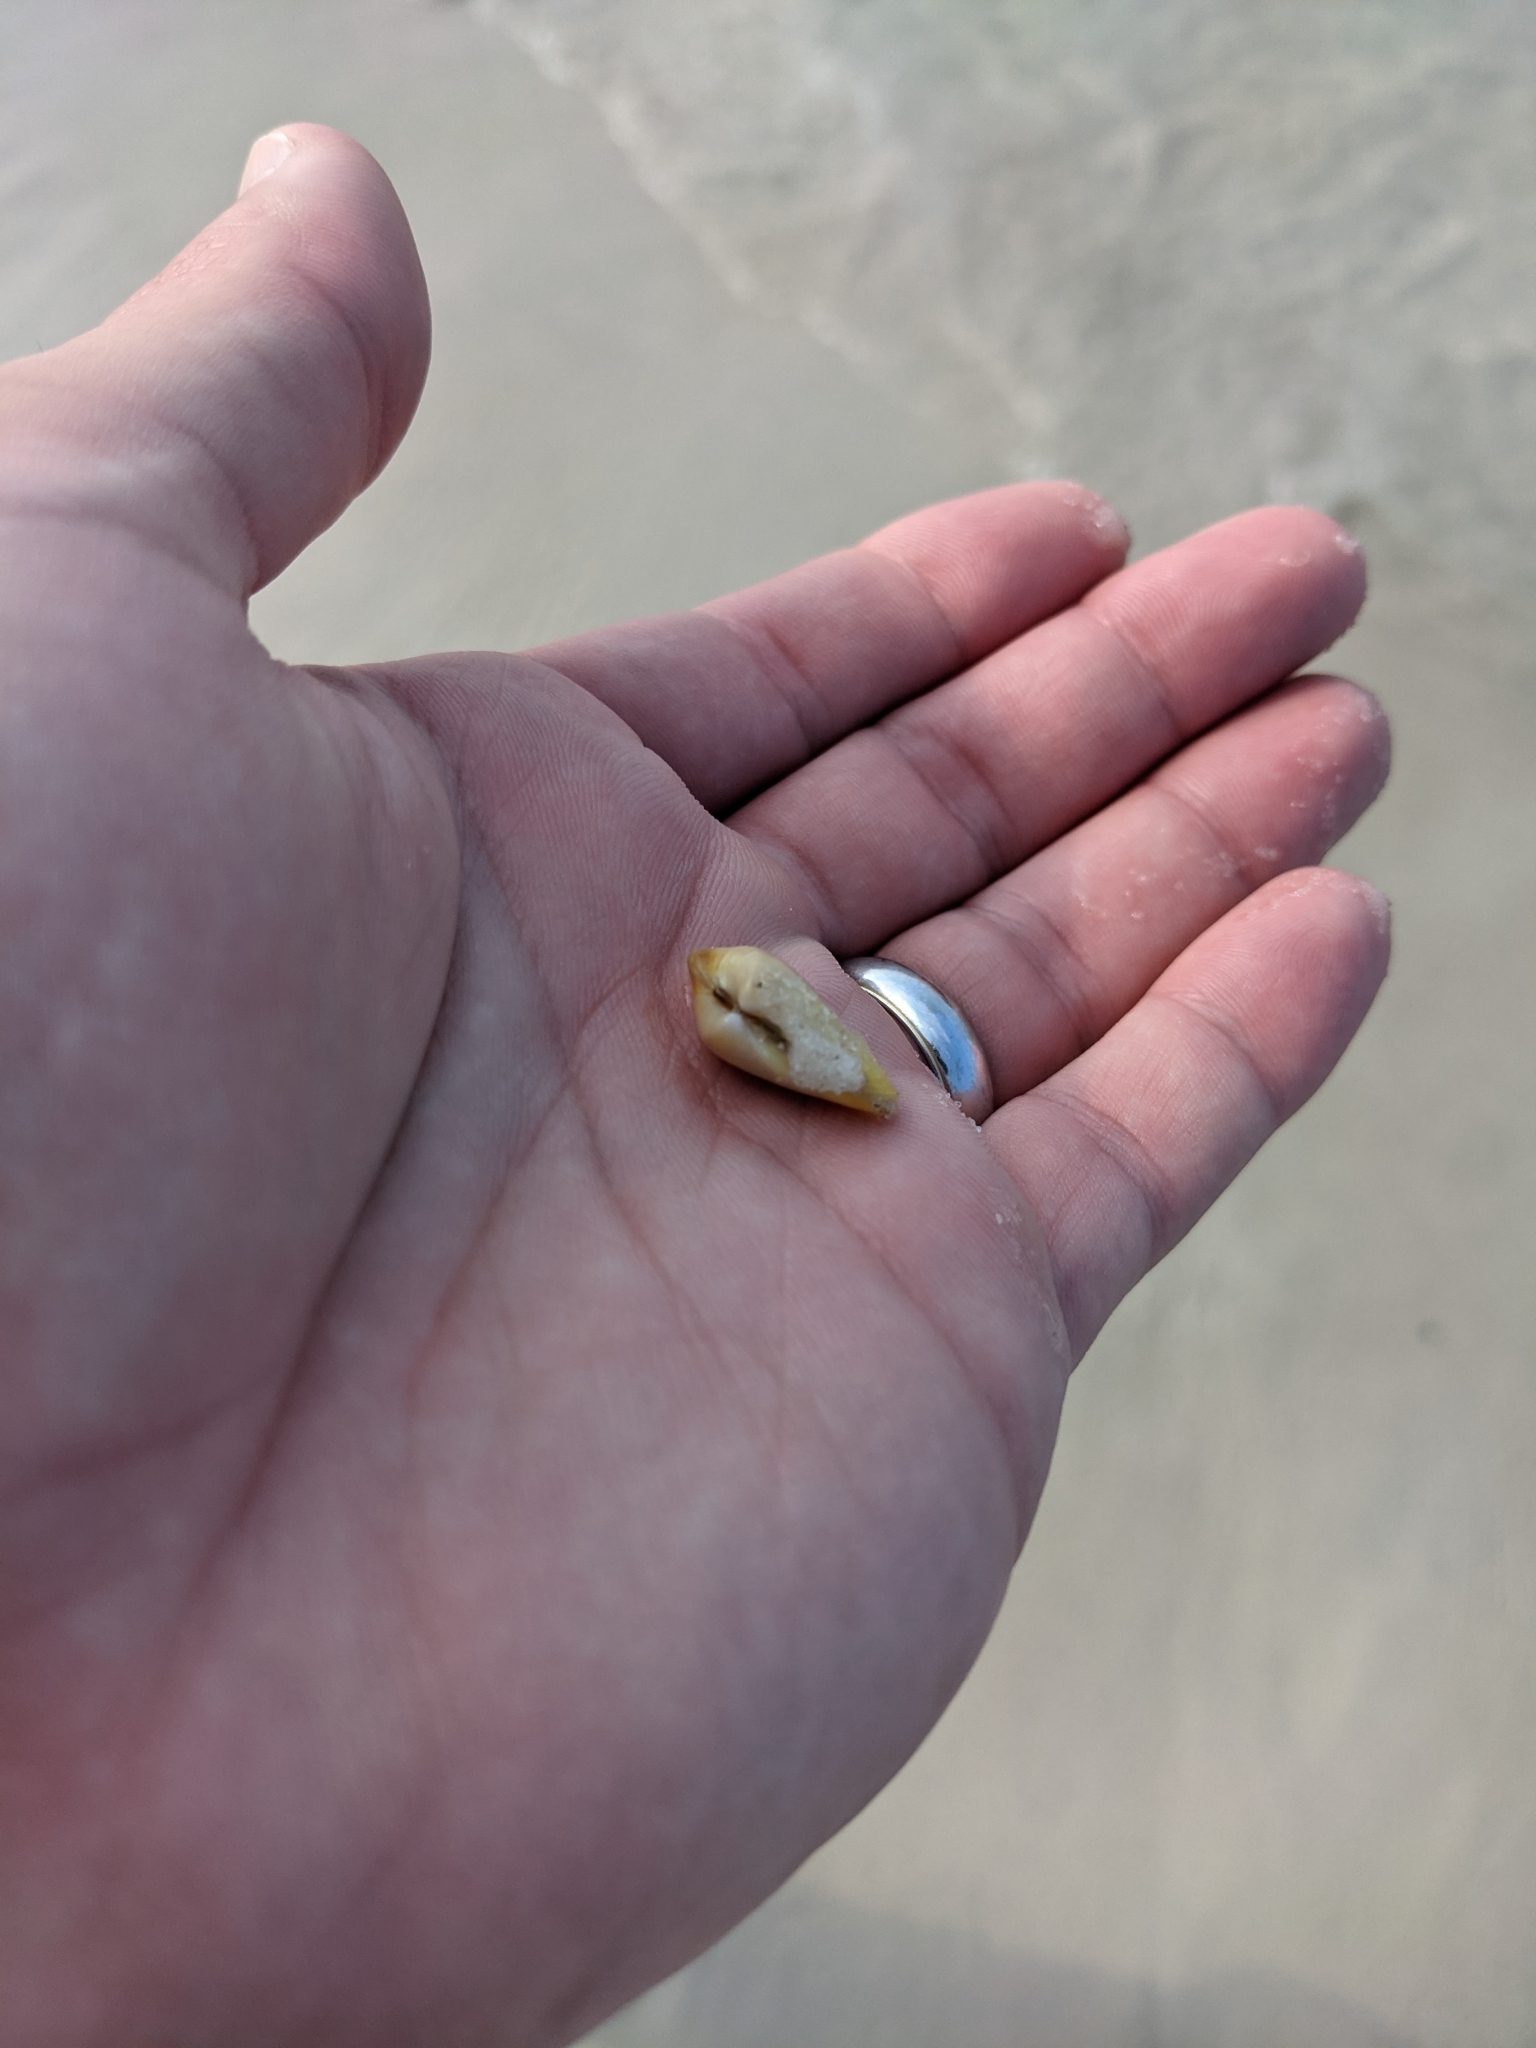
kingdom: Animalia
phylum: Mollusca
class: Bivalvia
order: Cardiida
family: Donacidae
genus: Donax
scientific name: Donax variabilis
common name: Butterfly shell
